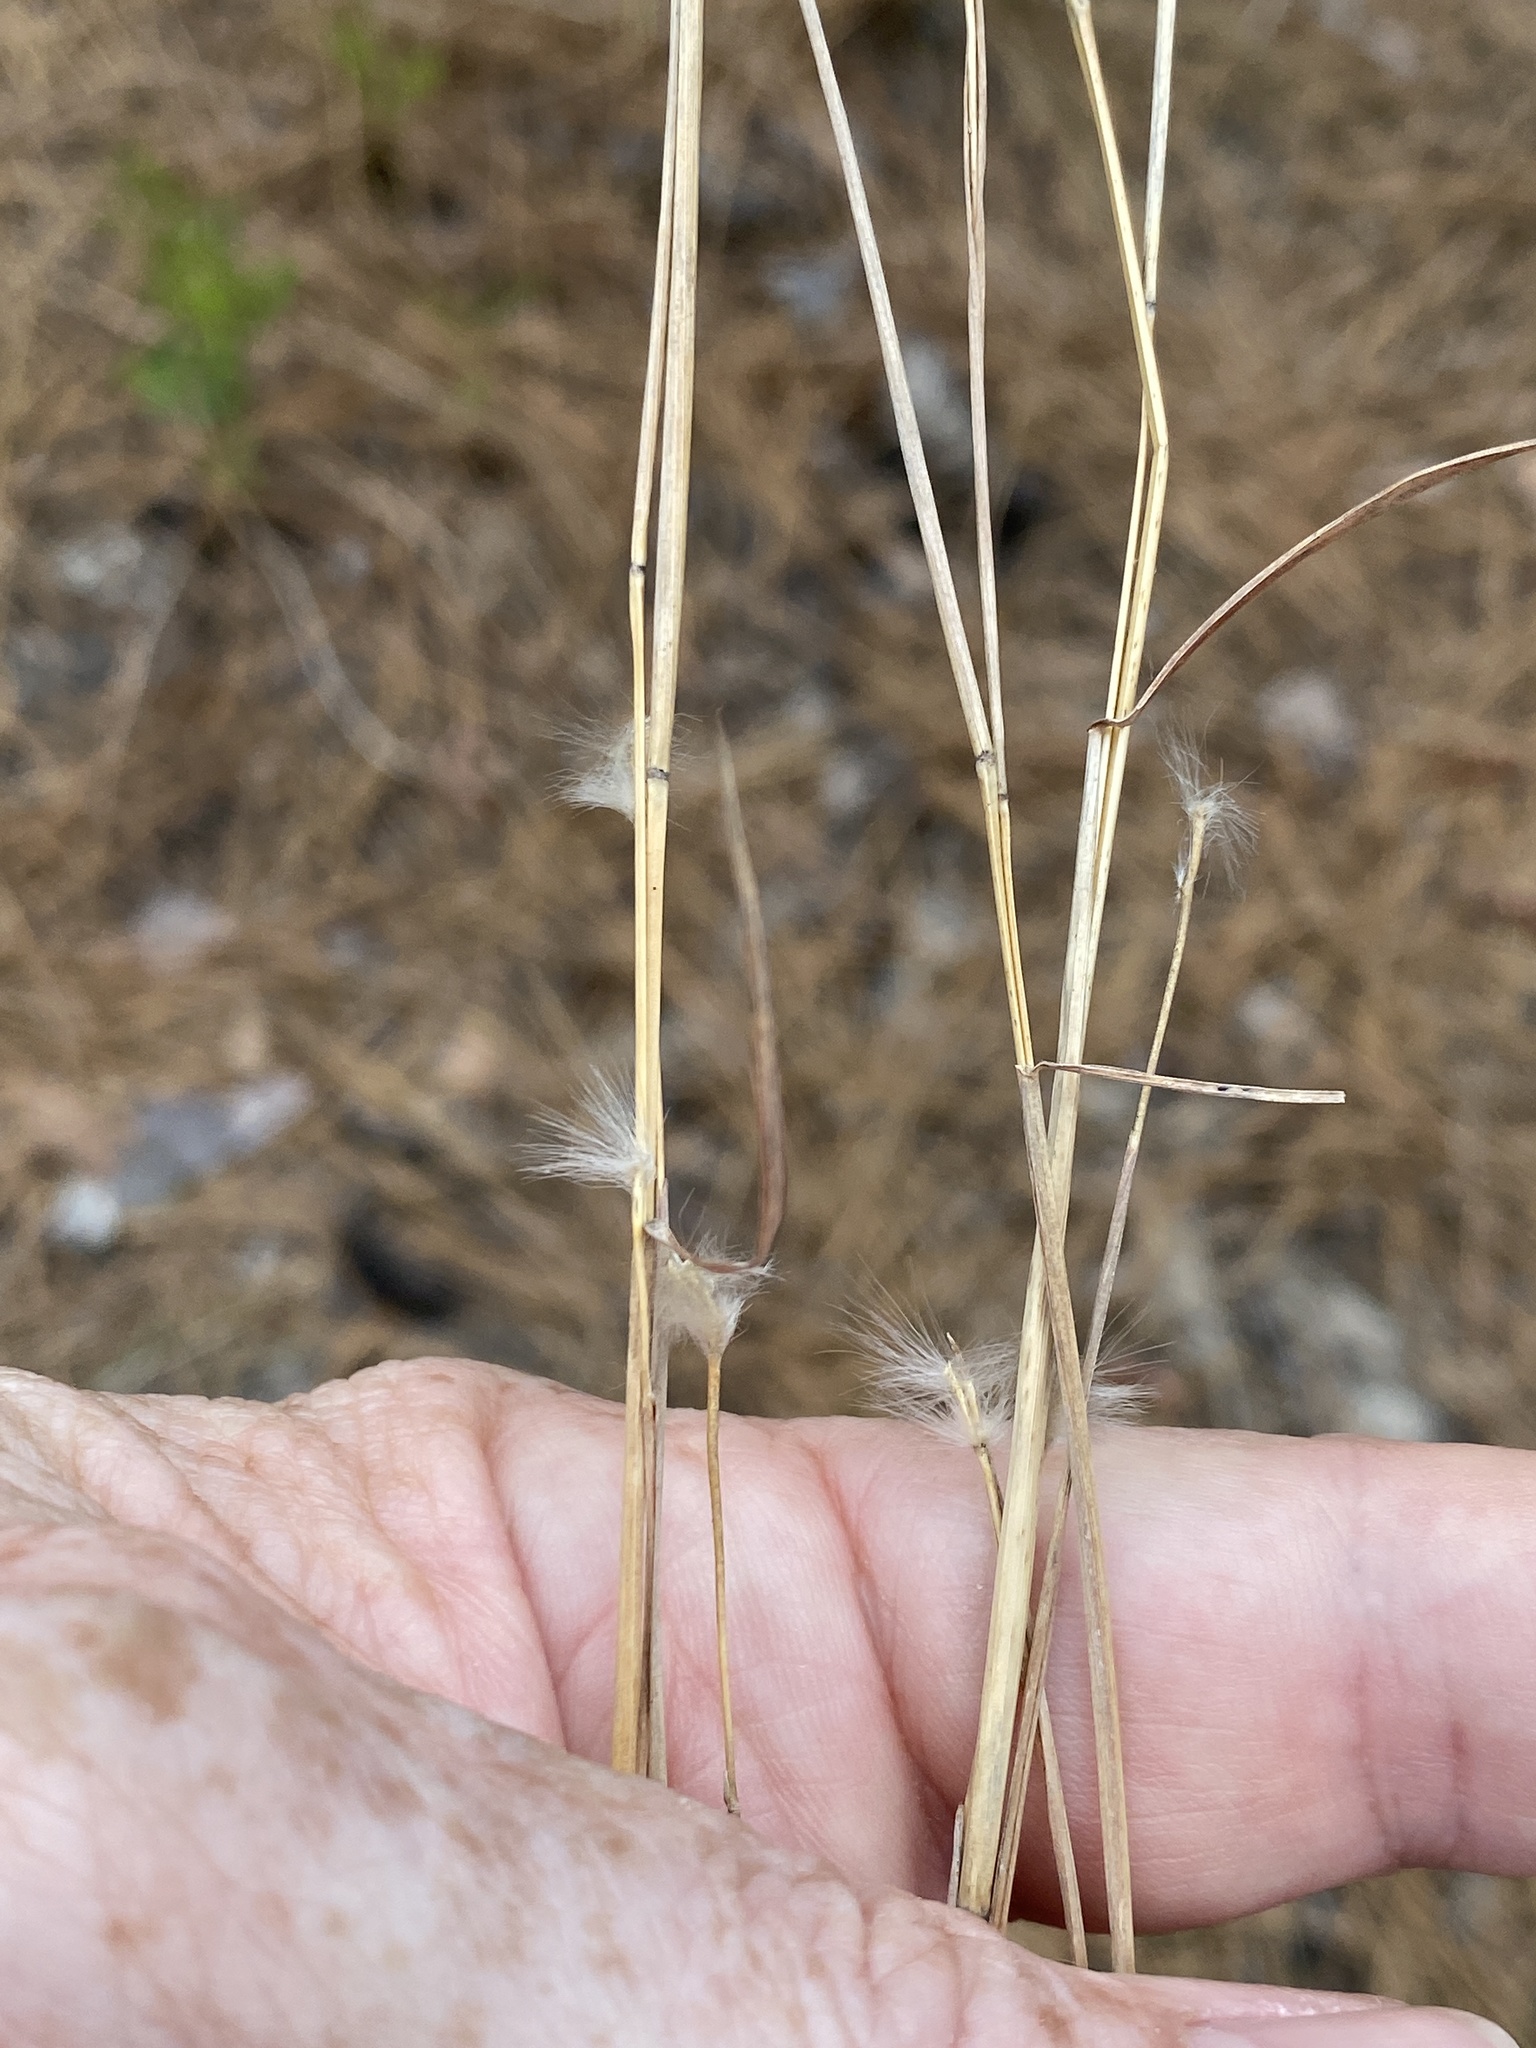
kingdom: Plantae
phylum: Tracheophyta
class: Liliopsida
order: Poales
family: Poaceae
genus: Andropogon
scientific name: Andropogon ternarius
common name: Split bluestem
